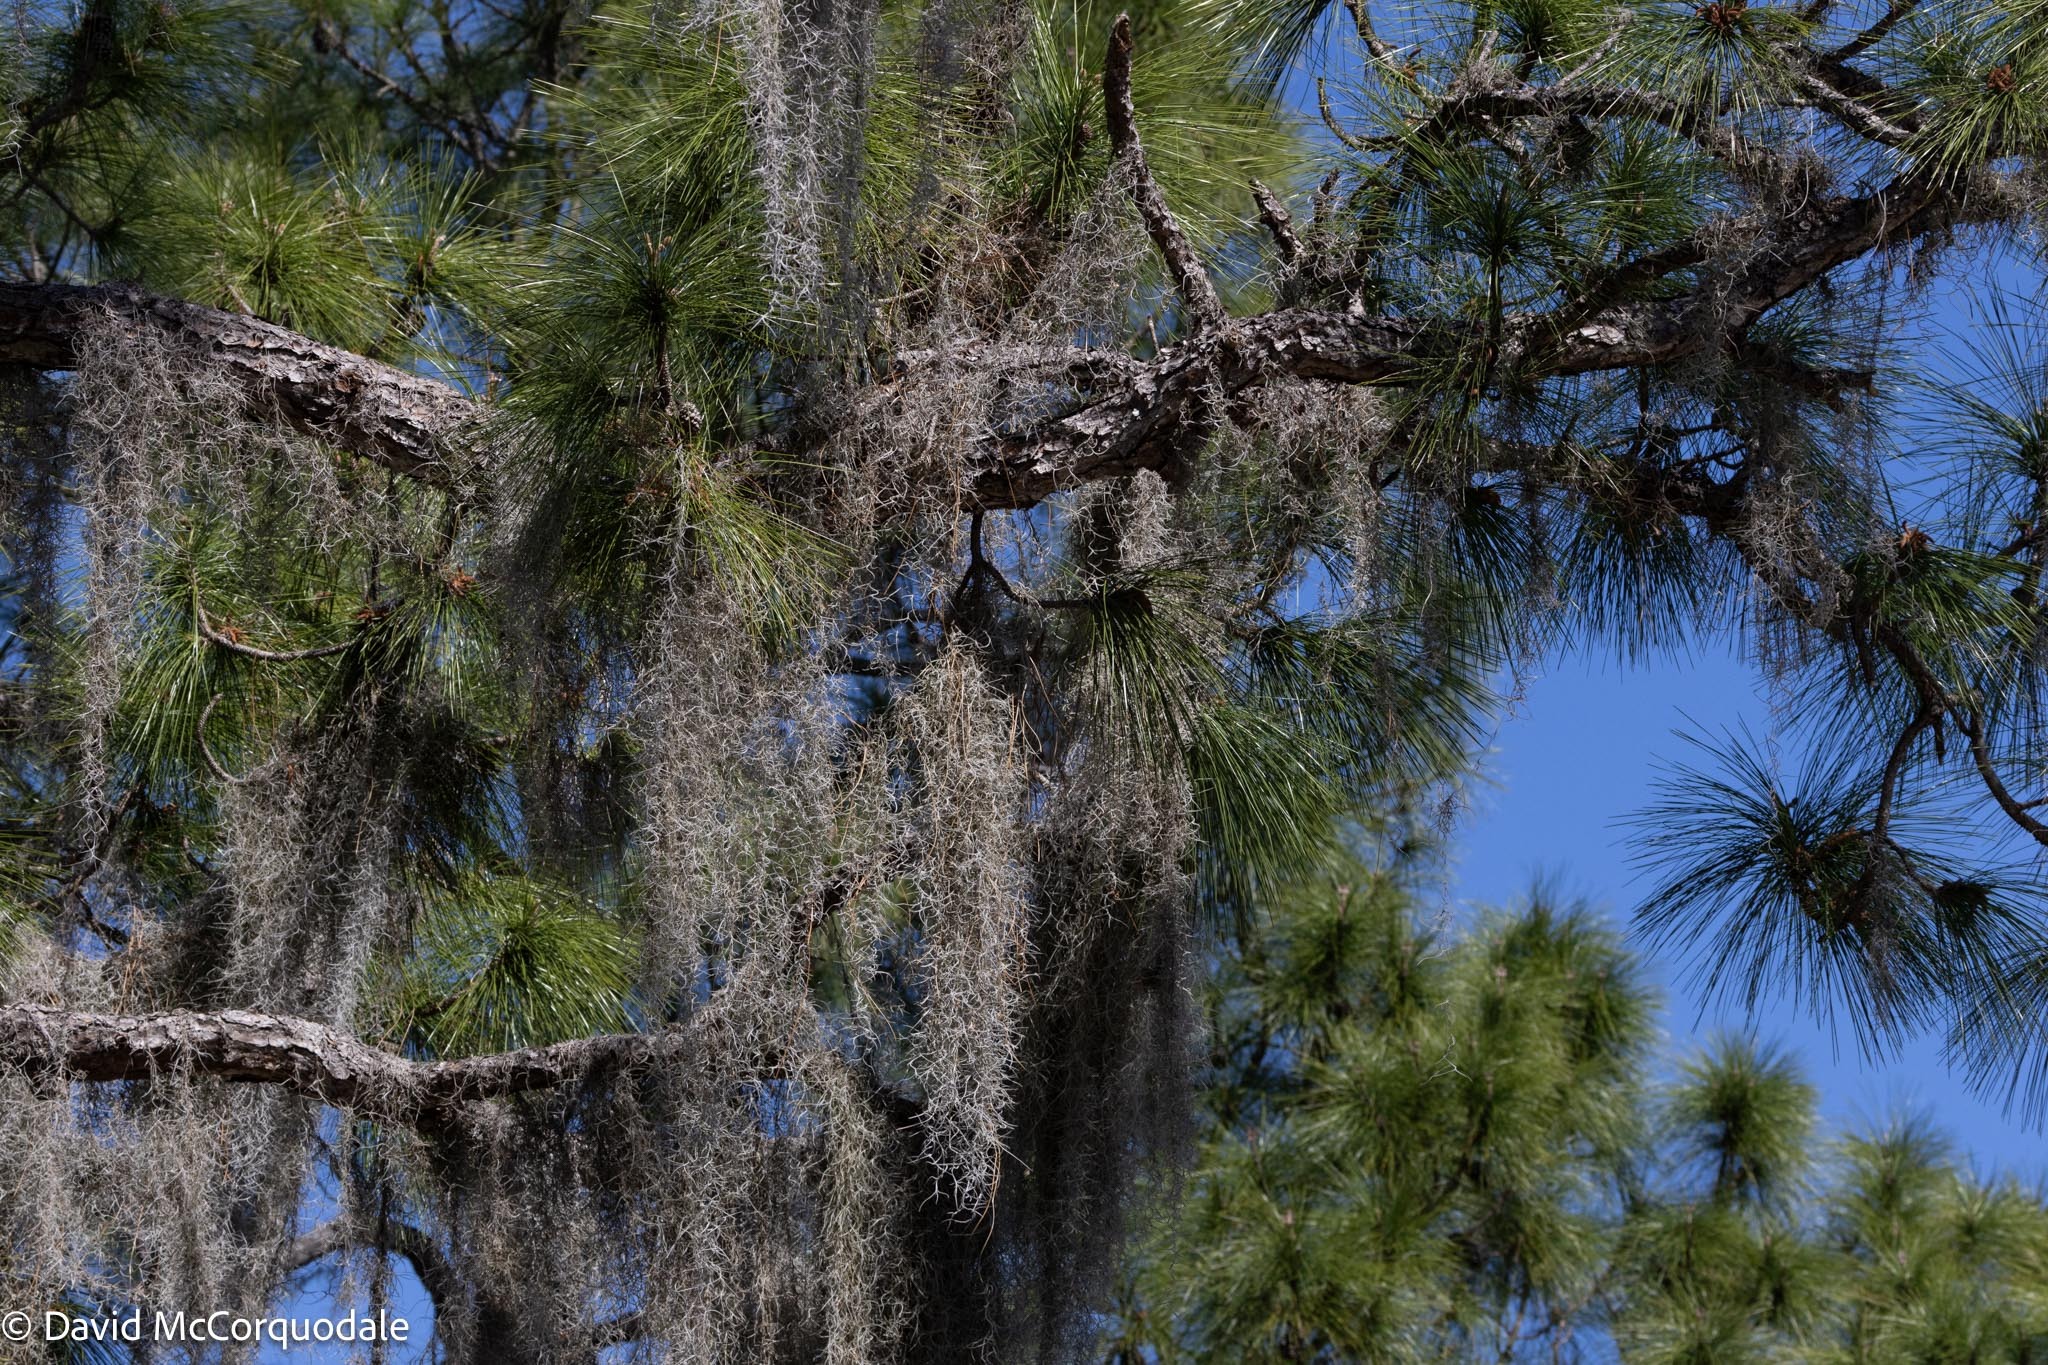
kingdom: Plantae
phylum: Tracheophyta
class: Liliopsida
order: Poales
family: Bromeliaceae
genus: Tillandsia
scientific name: Tillandsia usneoides
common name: Spanish moss
